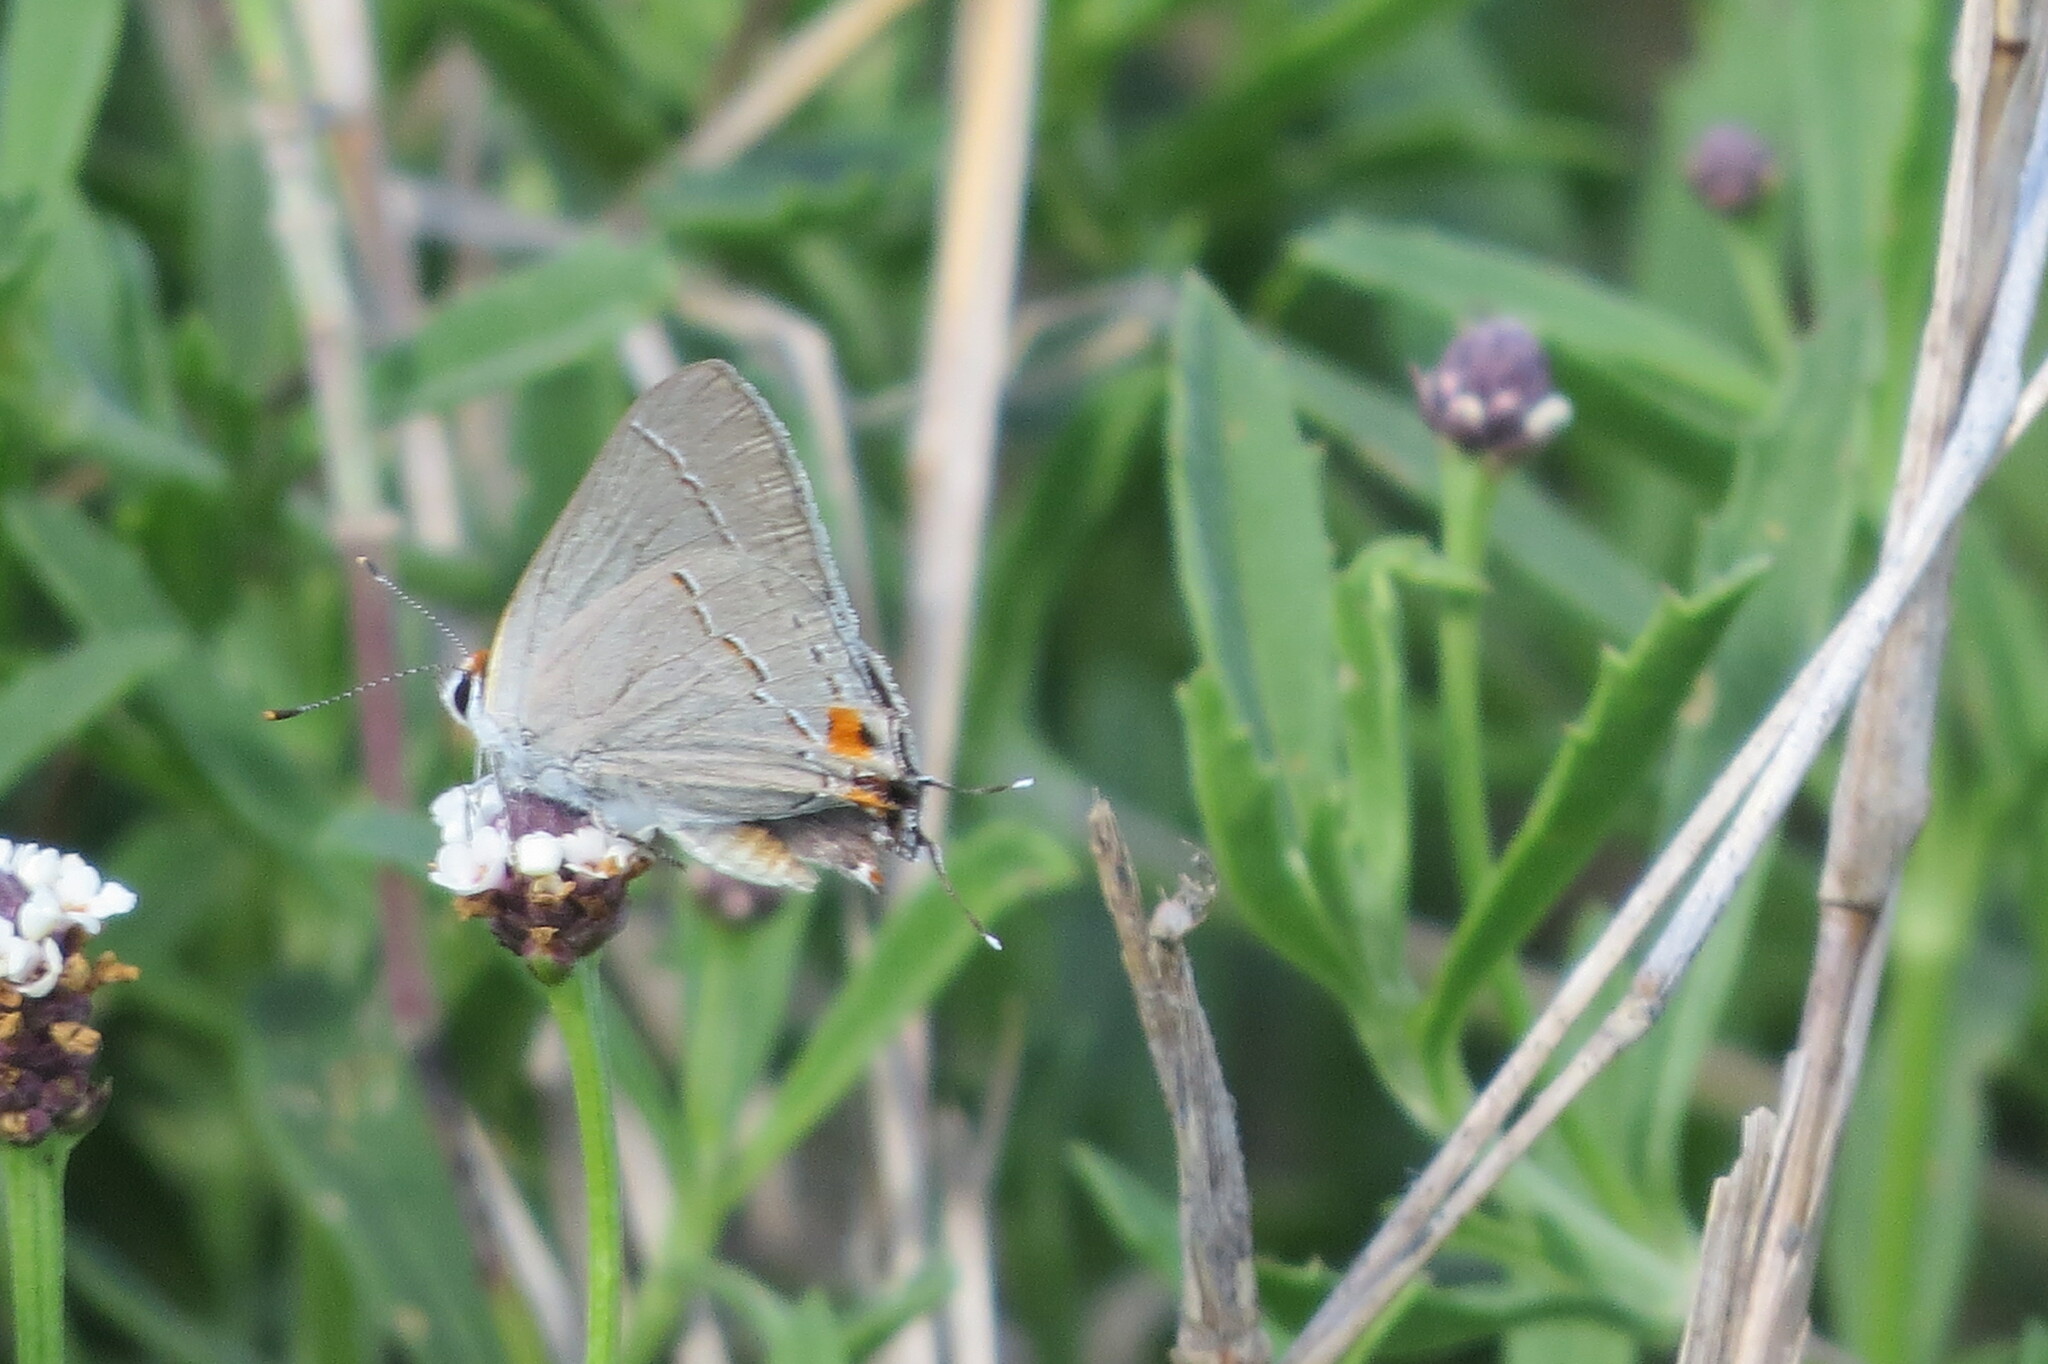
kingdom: Animalia
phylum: Arthropoda
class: Insecta
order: Lepidoptera
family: Lycaenidae
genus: Strymon
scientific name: Strymon melinus
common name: Gray hairstreak
